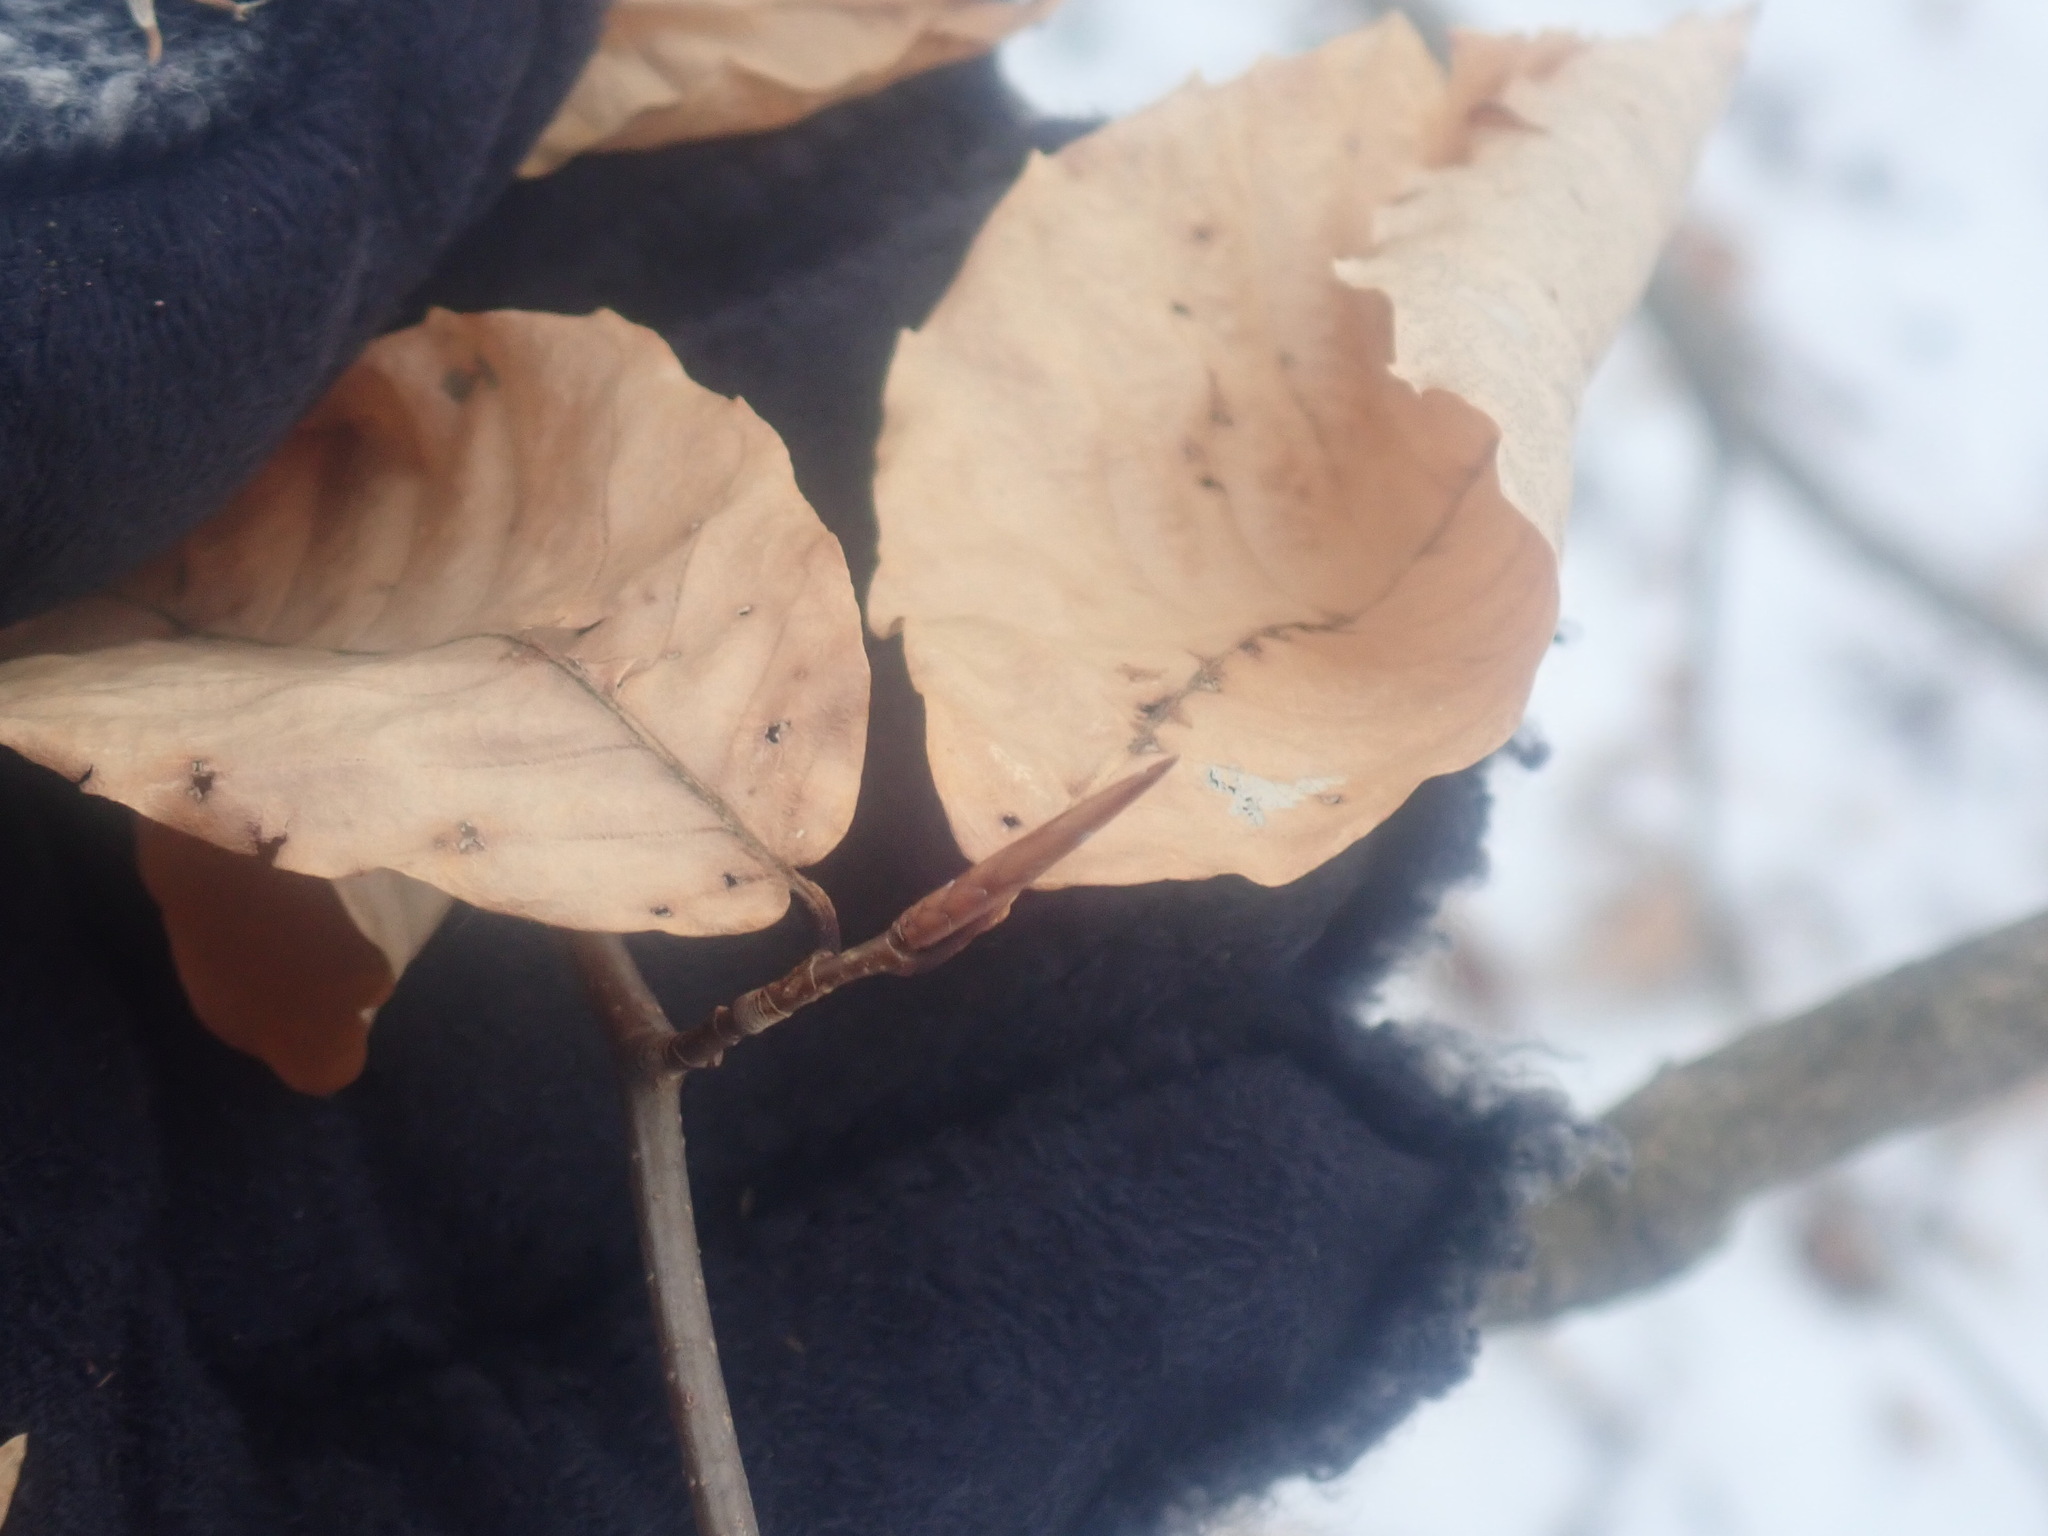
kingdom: Plantae
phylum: Tracheophyta
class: Magnoliopsida
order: Fagales
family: Fagaceae
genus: Fagus
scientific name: Fagus grandifolia
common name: American beech
